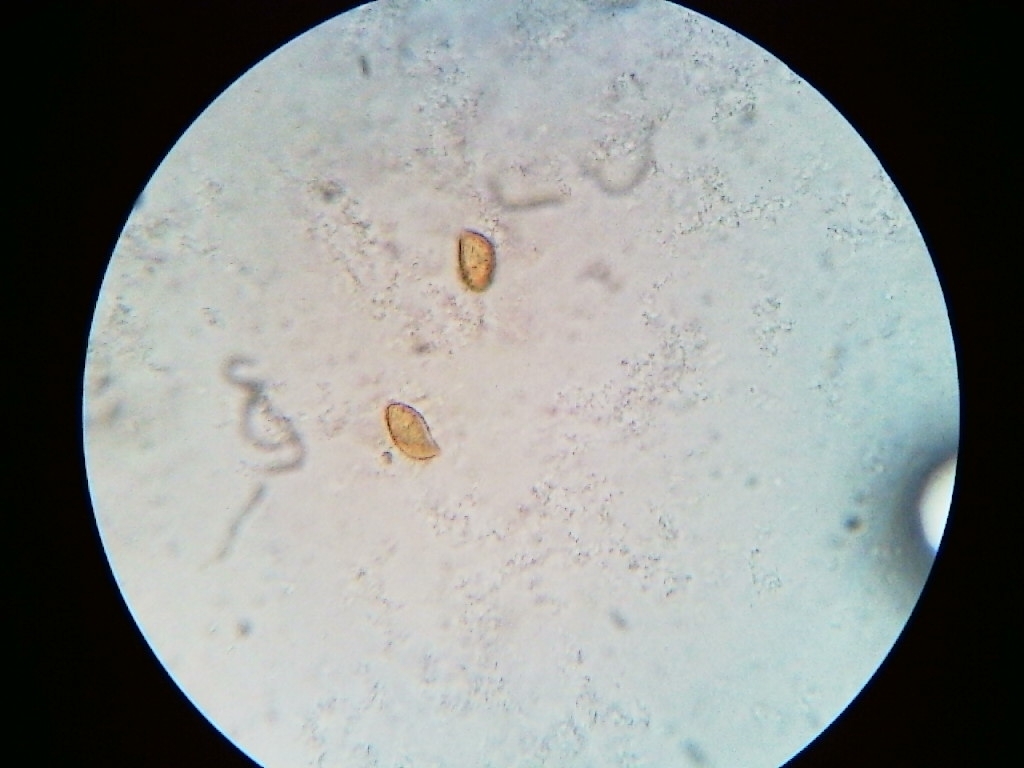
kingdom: Fungi
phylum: Basidiomycota
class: Agaricomycetes
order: Agaricales
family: Cortinariaceae
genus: Phlegmacium
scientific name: Phlegmacium triumphans
